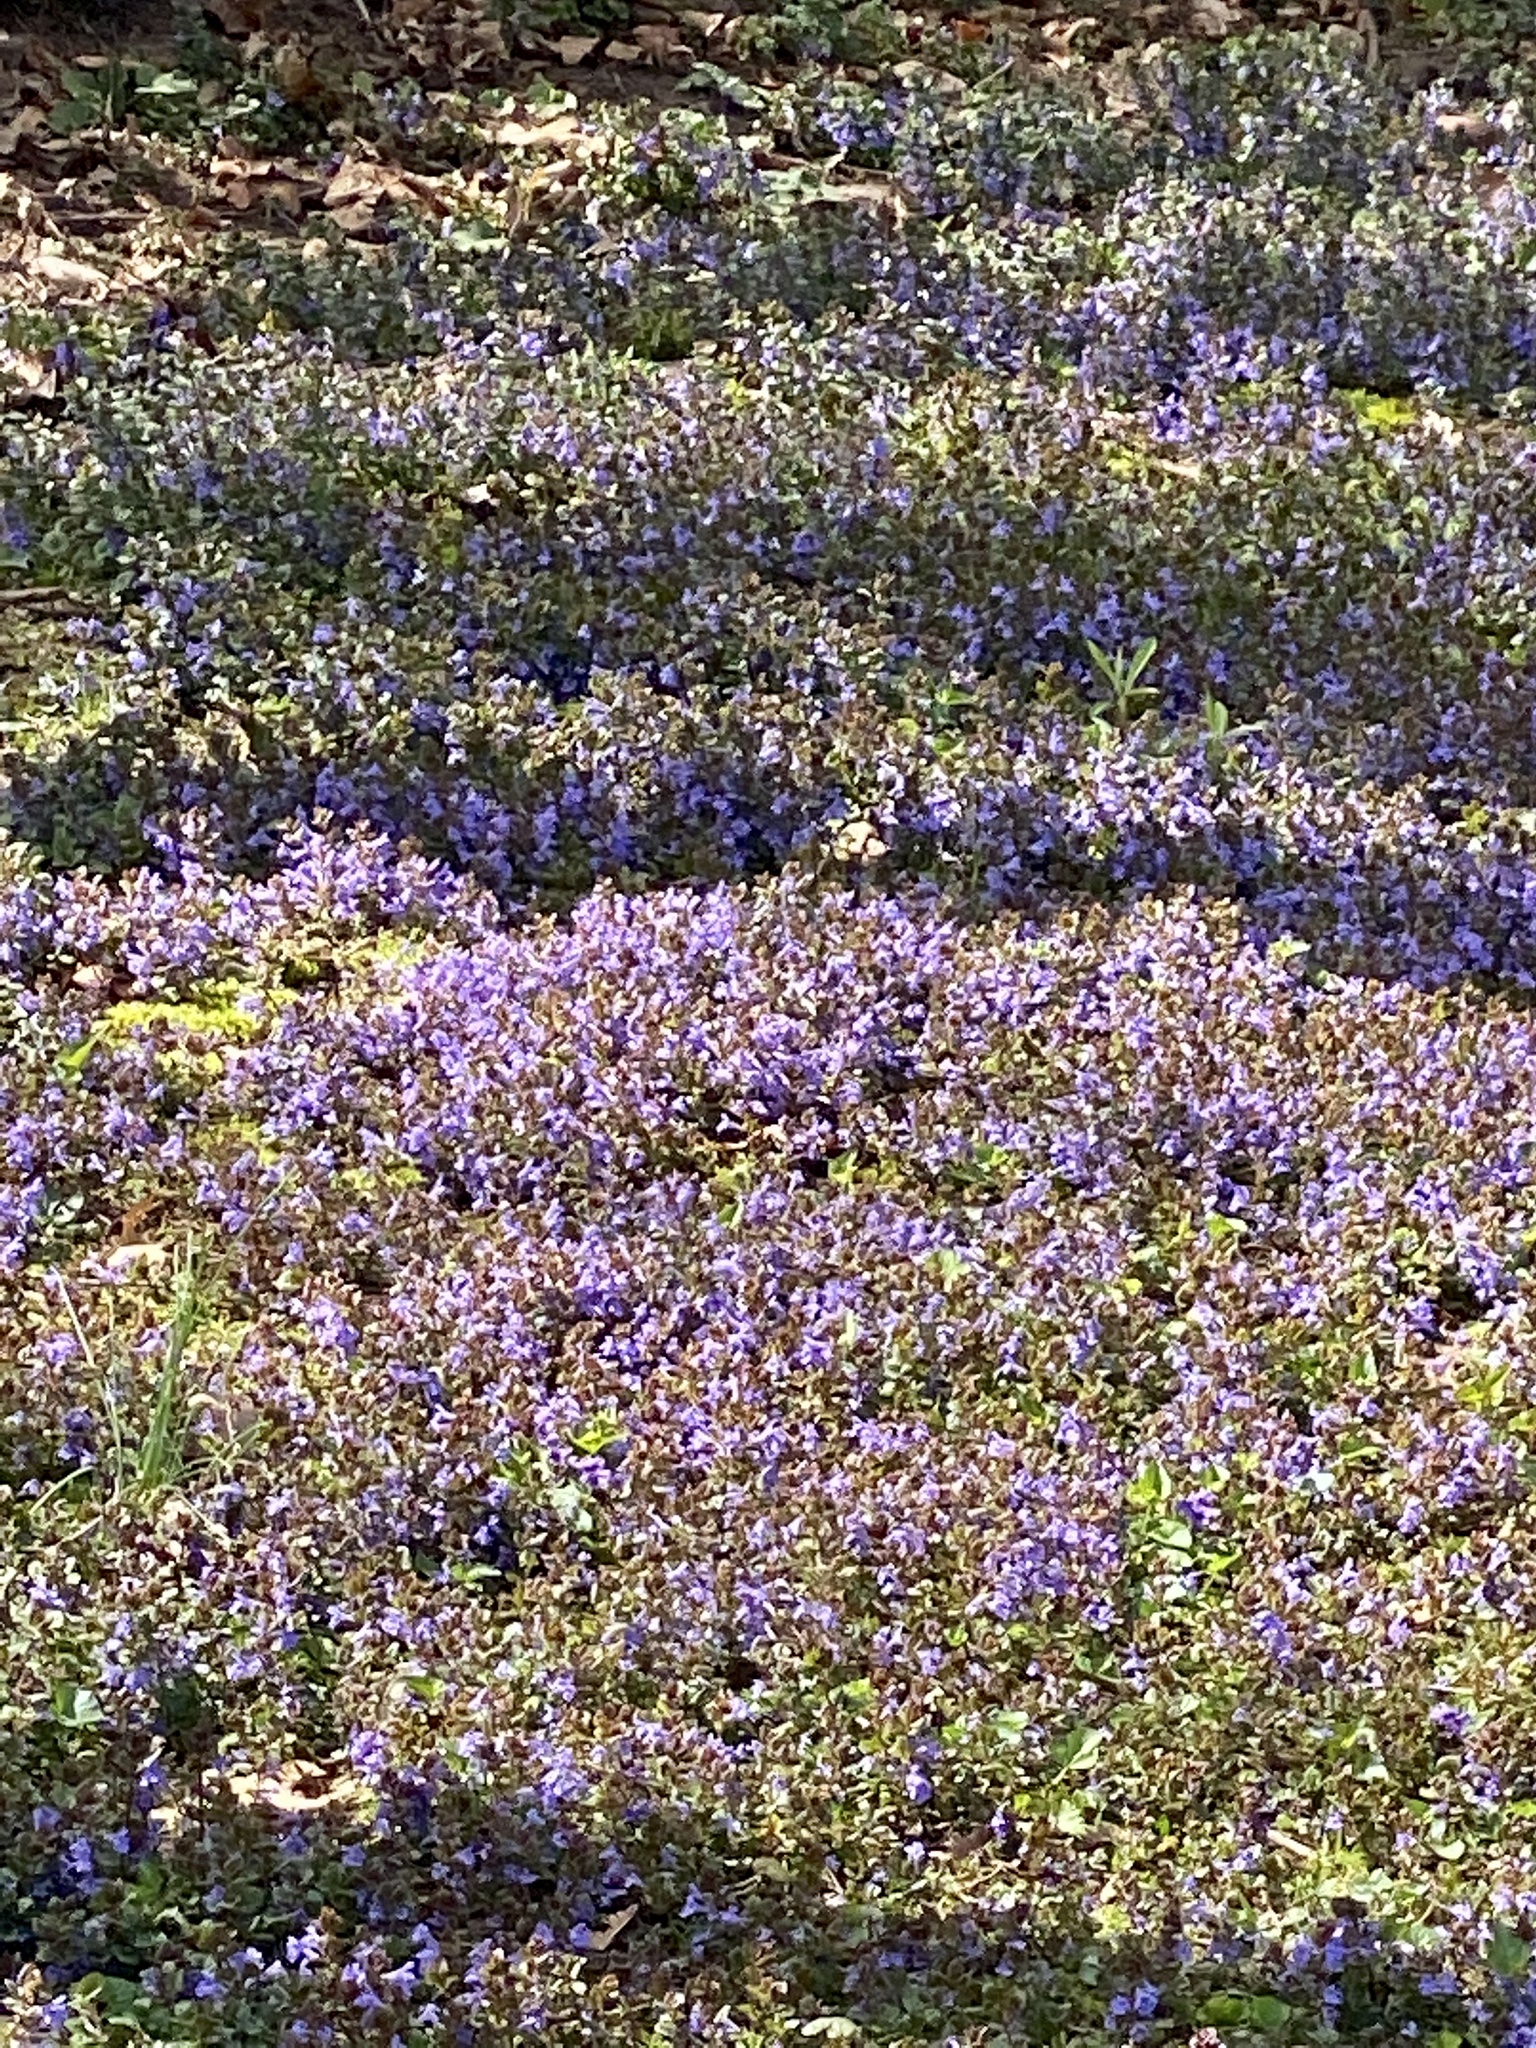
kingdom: Plantae
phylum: Tracheophyta
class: Magnoliopsida
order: Lamiales
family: Lamiaceae
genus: Glechoma
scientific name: Glechoma hederacea
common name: Ground ivy
